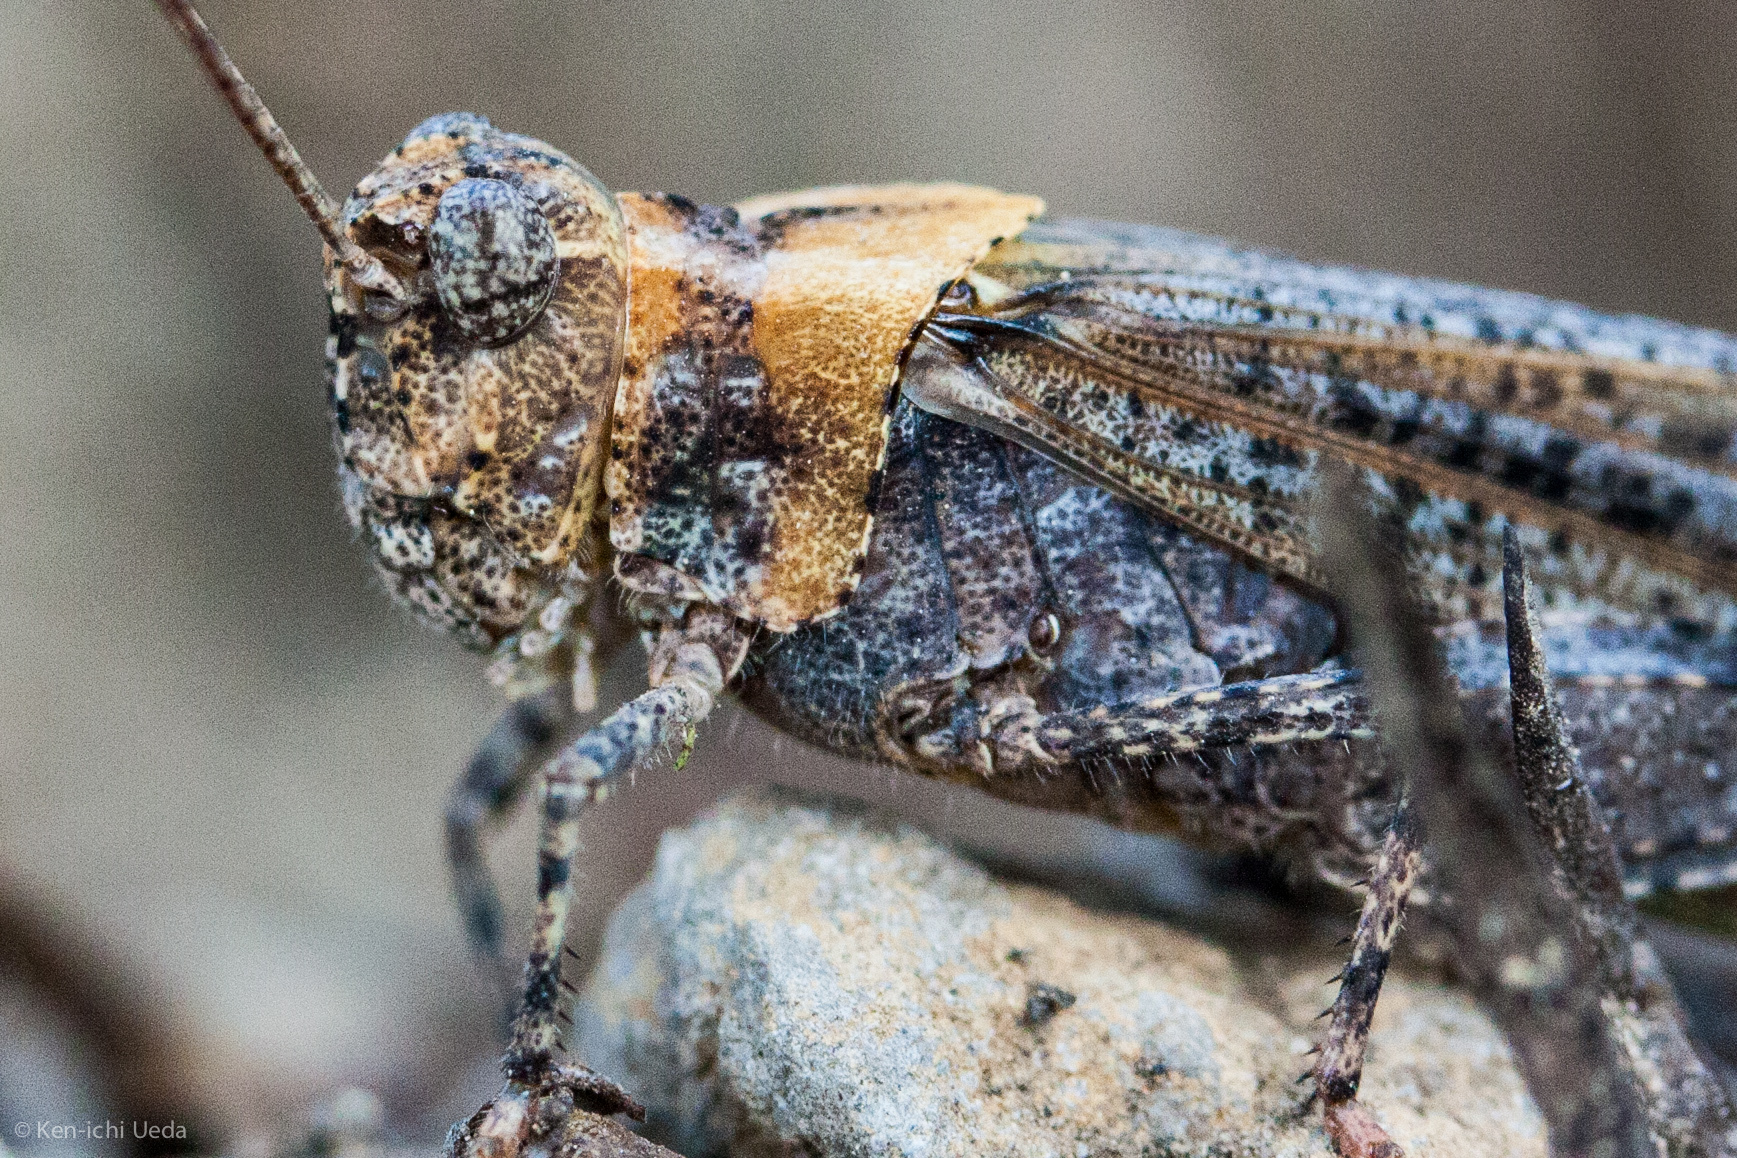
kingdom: Animalia
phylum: Arthropoda
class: Insecta
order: Orthoptera
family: Acrididae
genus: Trimerotropis
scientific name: Trimerotropis verruculata
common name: Crackling forest grasshopper
